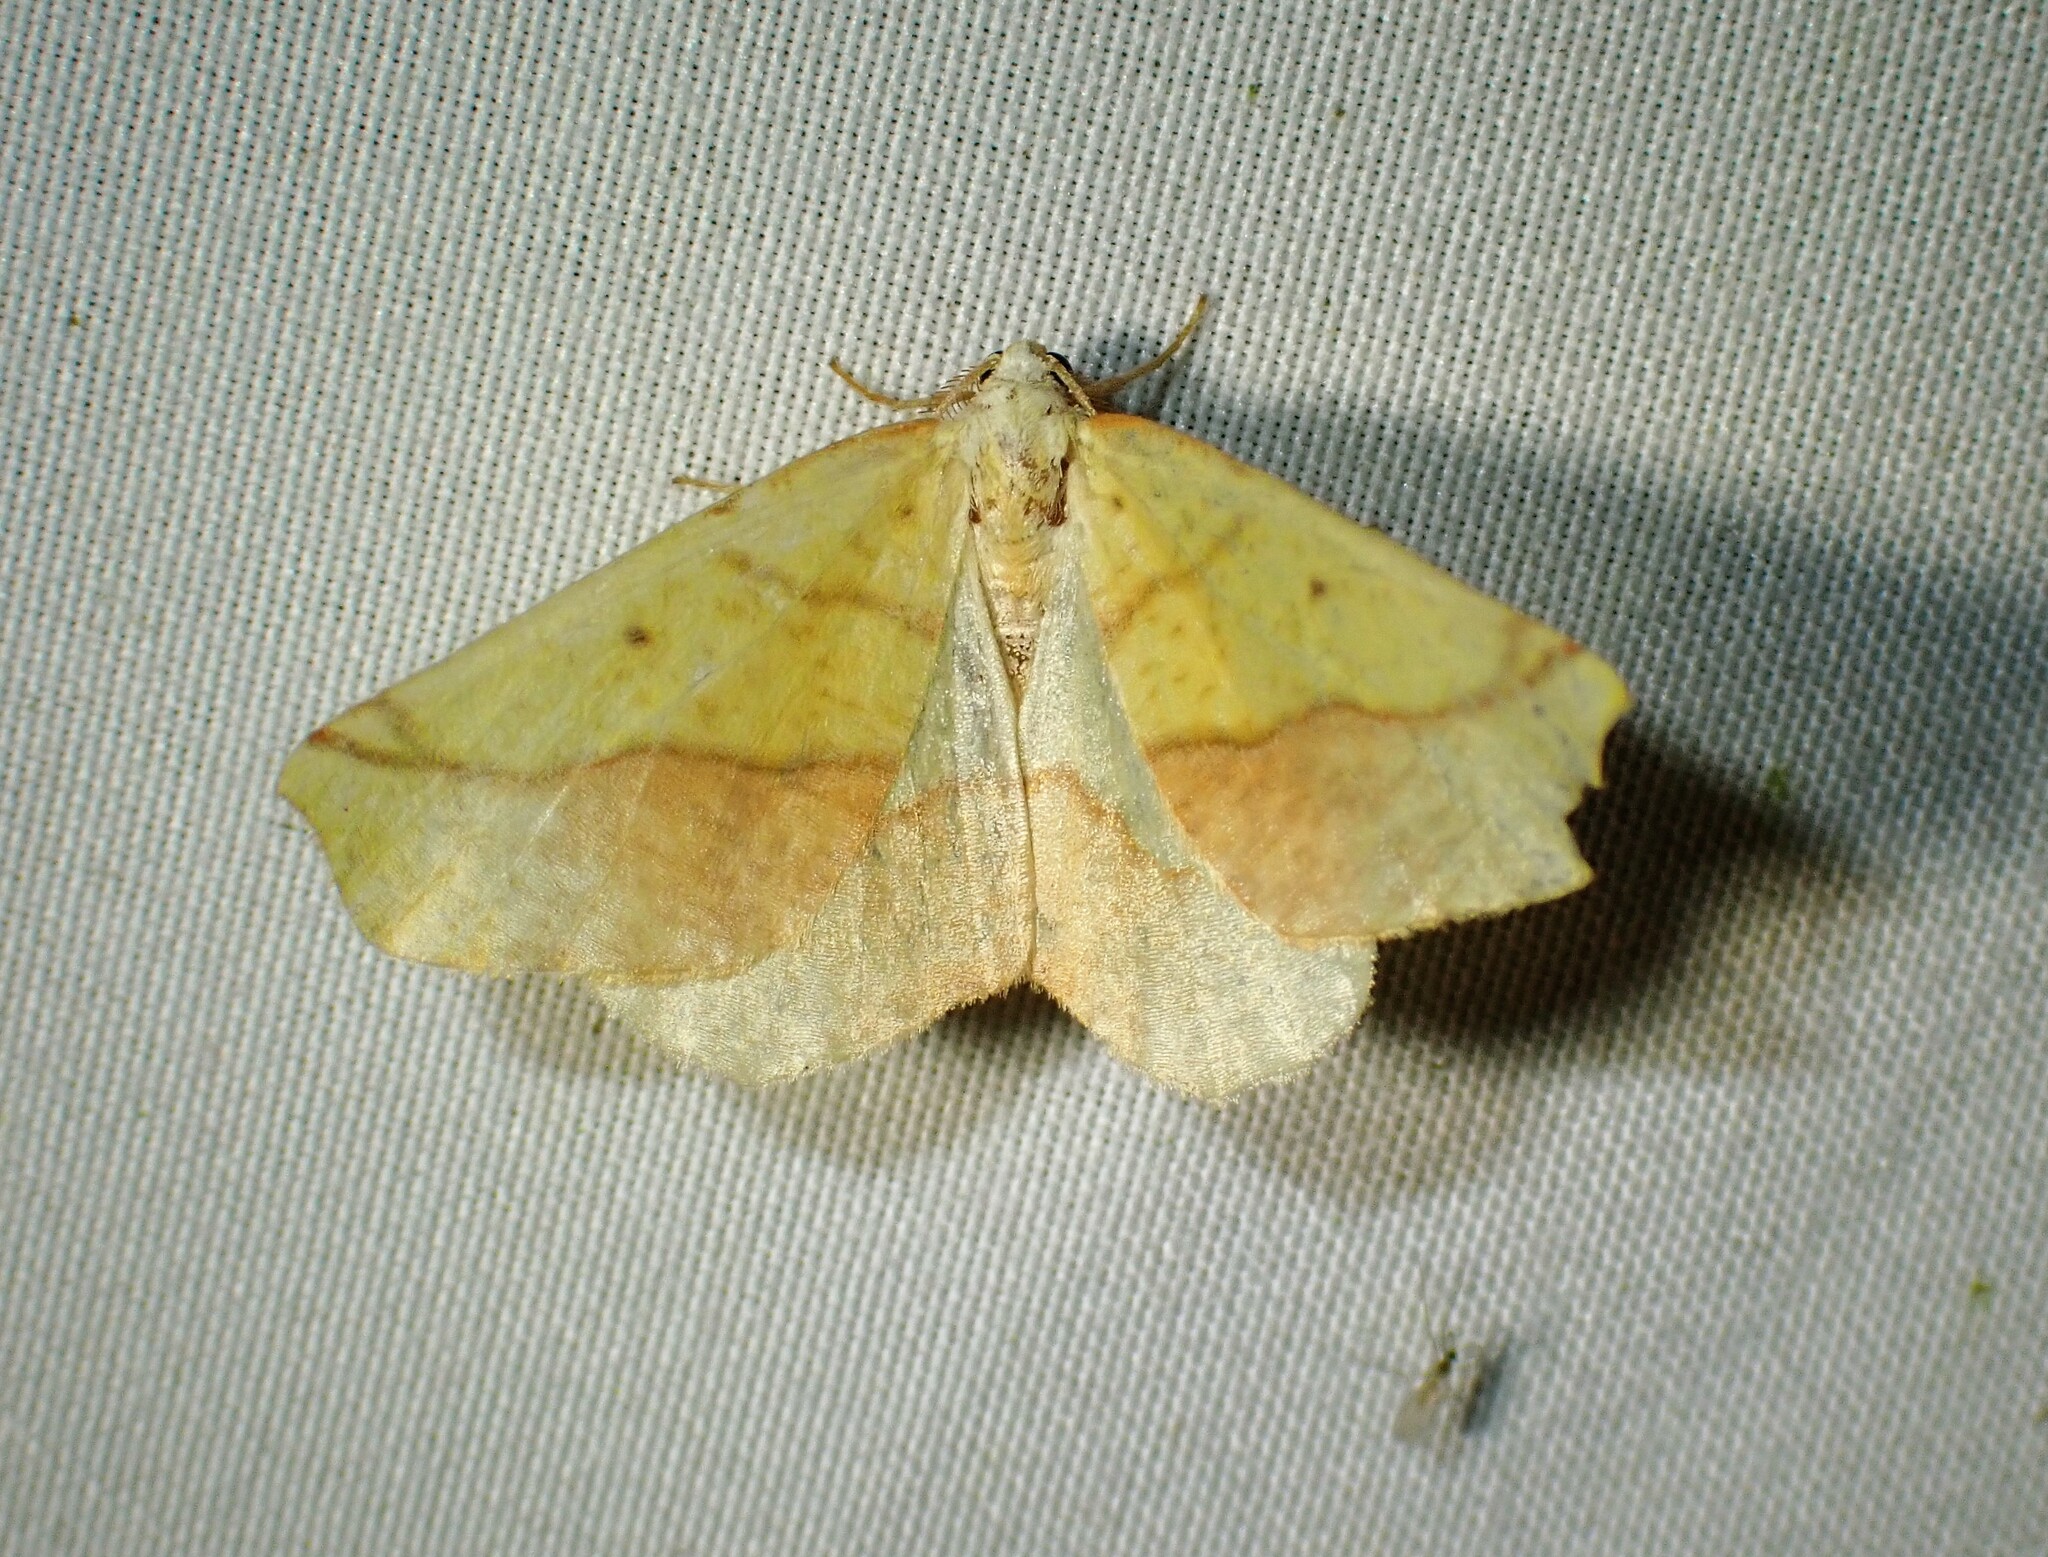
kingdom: Animalia
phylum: Arthropoda
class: Insecta
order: Lepidoptera
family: Geometridae
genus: Sicya
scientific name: Sicya macularia
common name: Sharp-lined yellow
